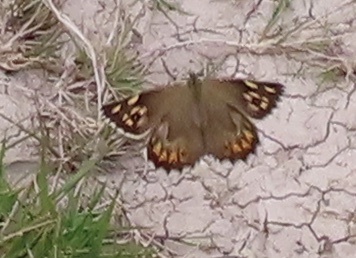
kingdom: Animalia
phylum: Arthropoda
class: Insecta
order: Lepidoptera
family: Nymphalidae
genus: Pararge
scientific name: Pararge aegeria
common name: Speckled wood
